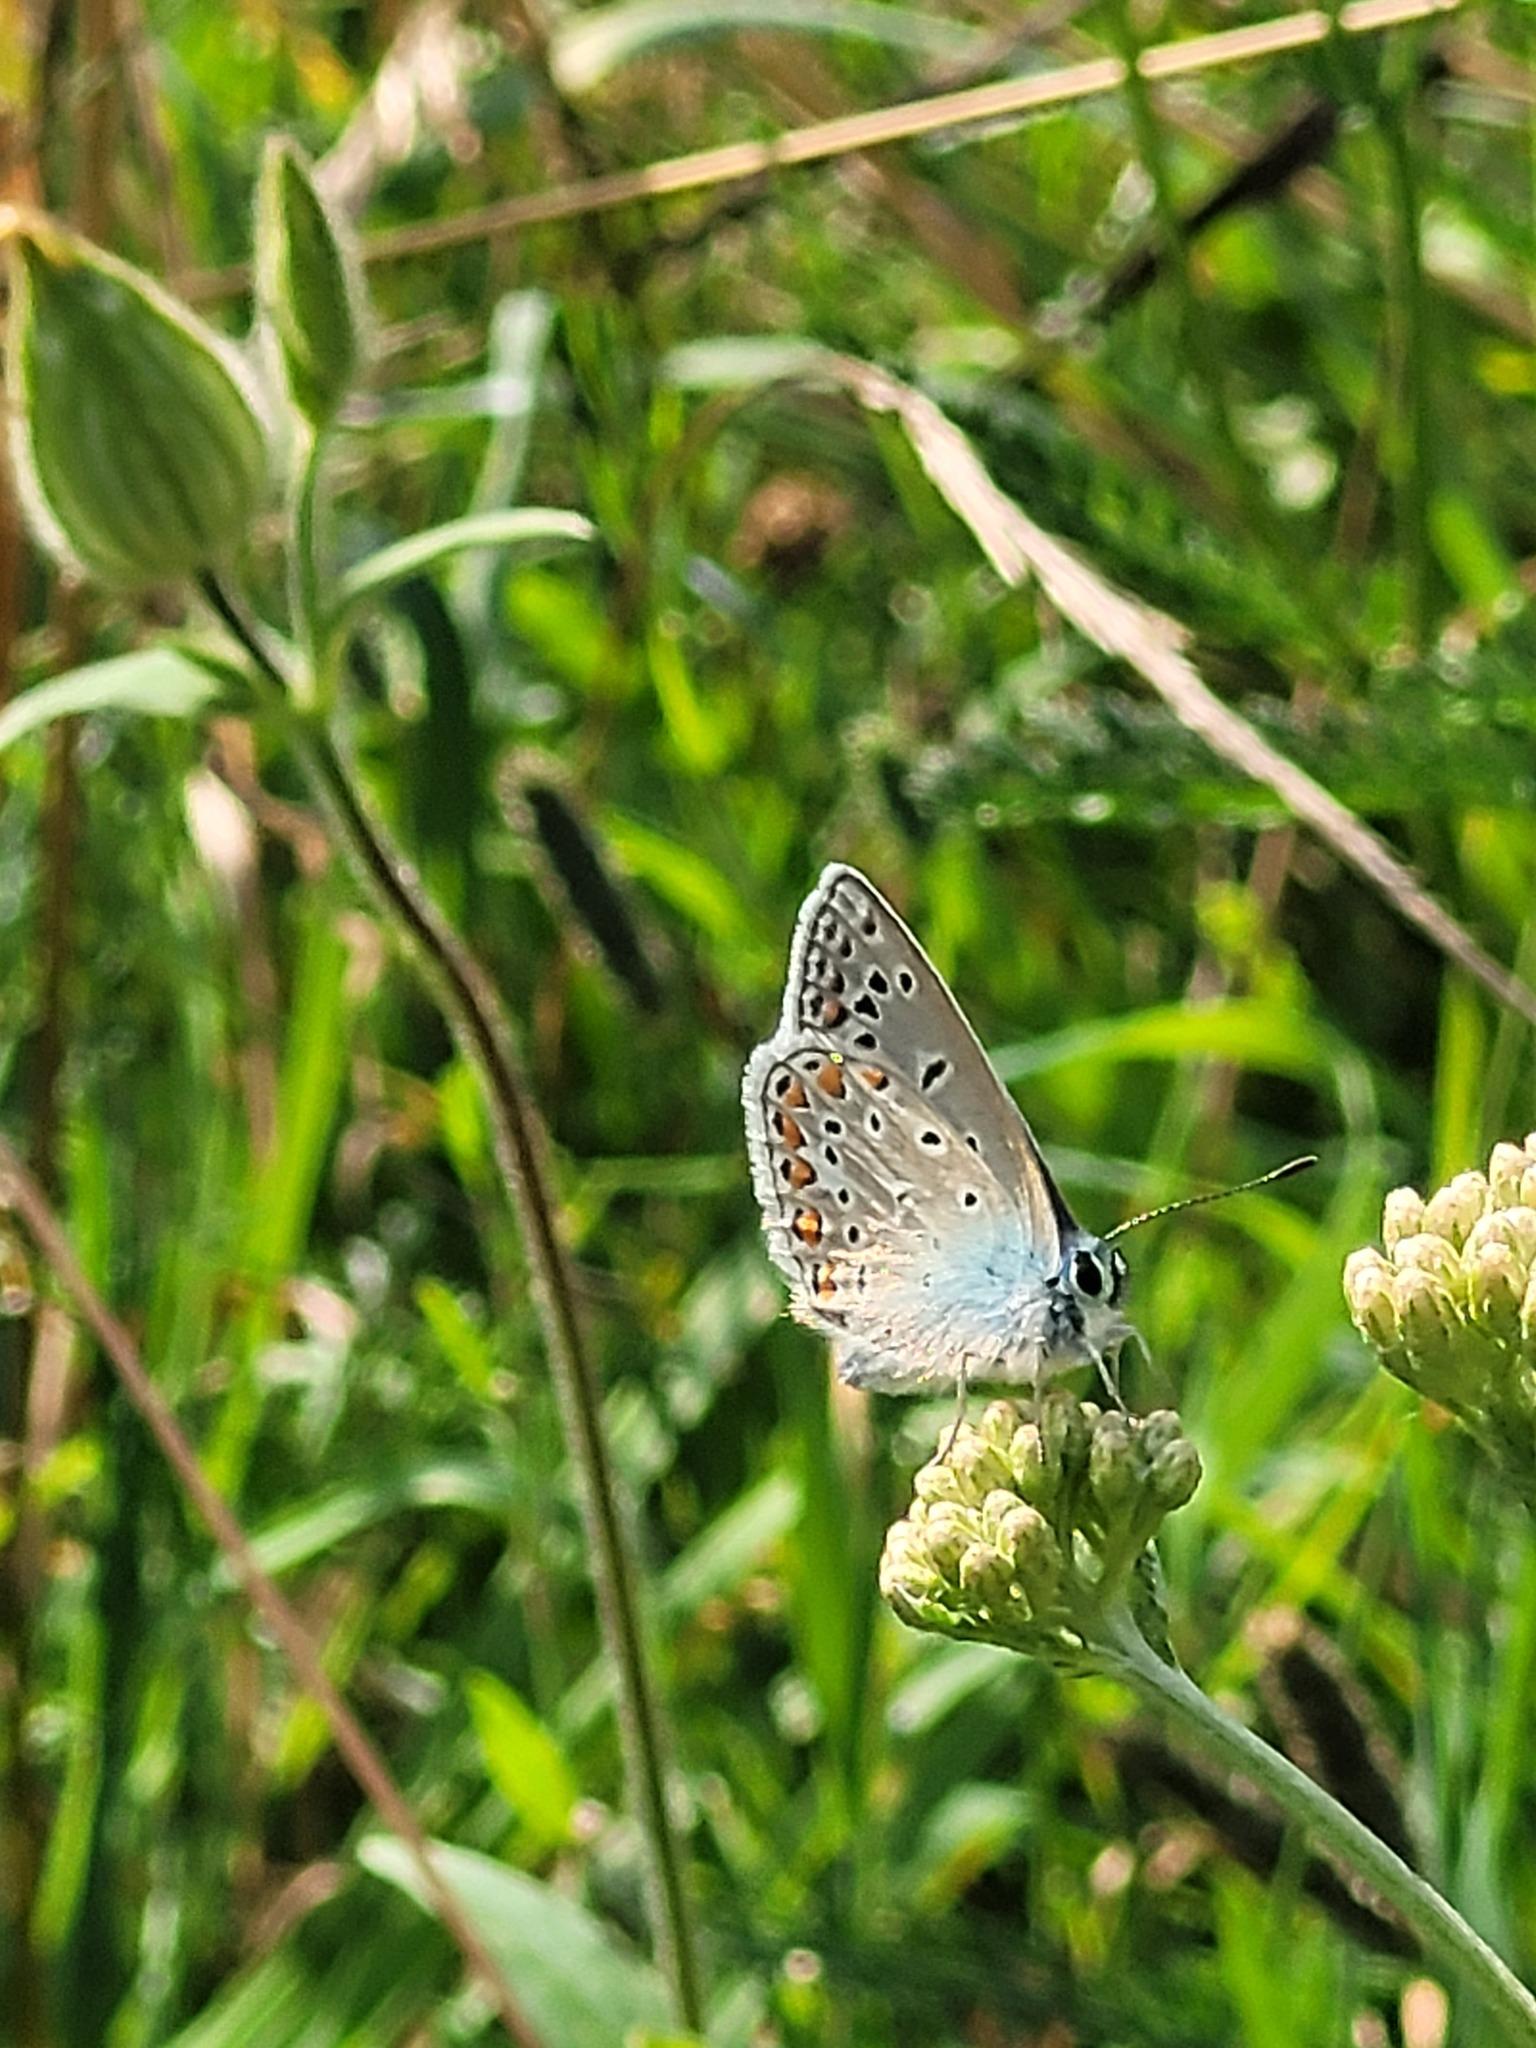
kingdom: Animalia
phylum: Arthropoda
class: Insecta
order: Lepidoptera
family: Lycaenidae
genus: Polyommatus
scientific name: Polyommatus icarus
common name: Common blue
